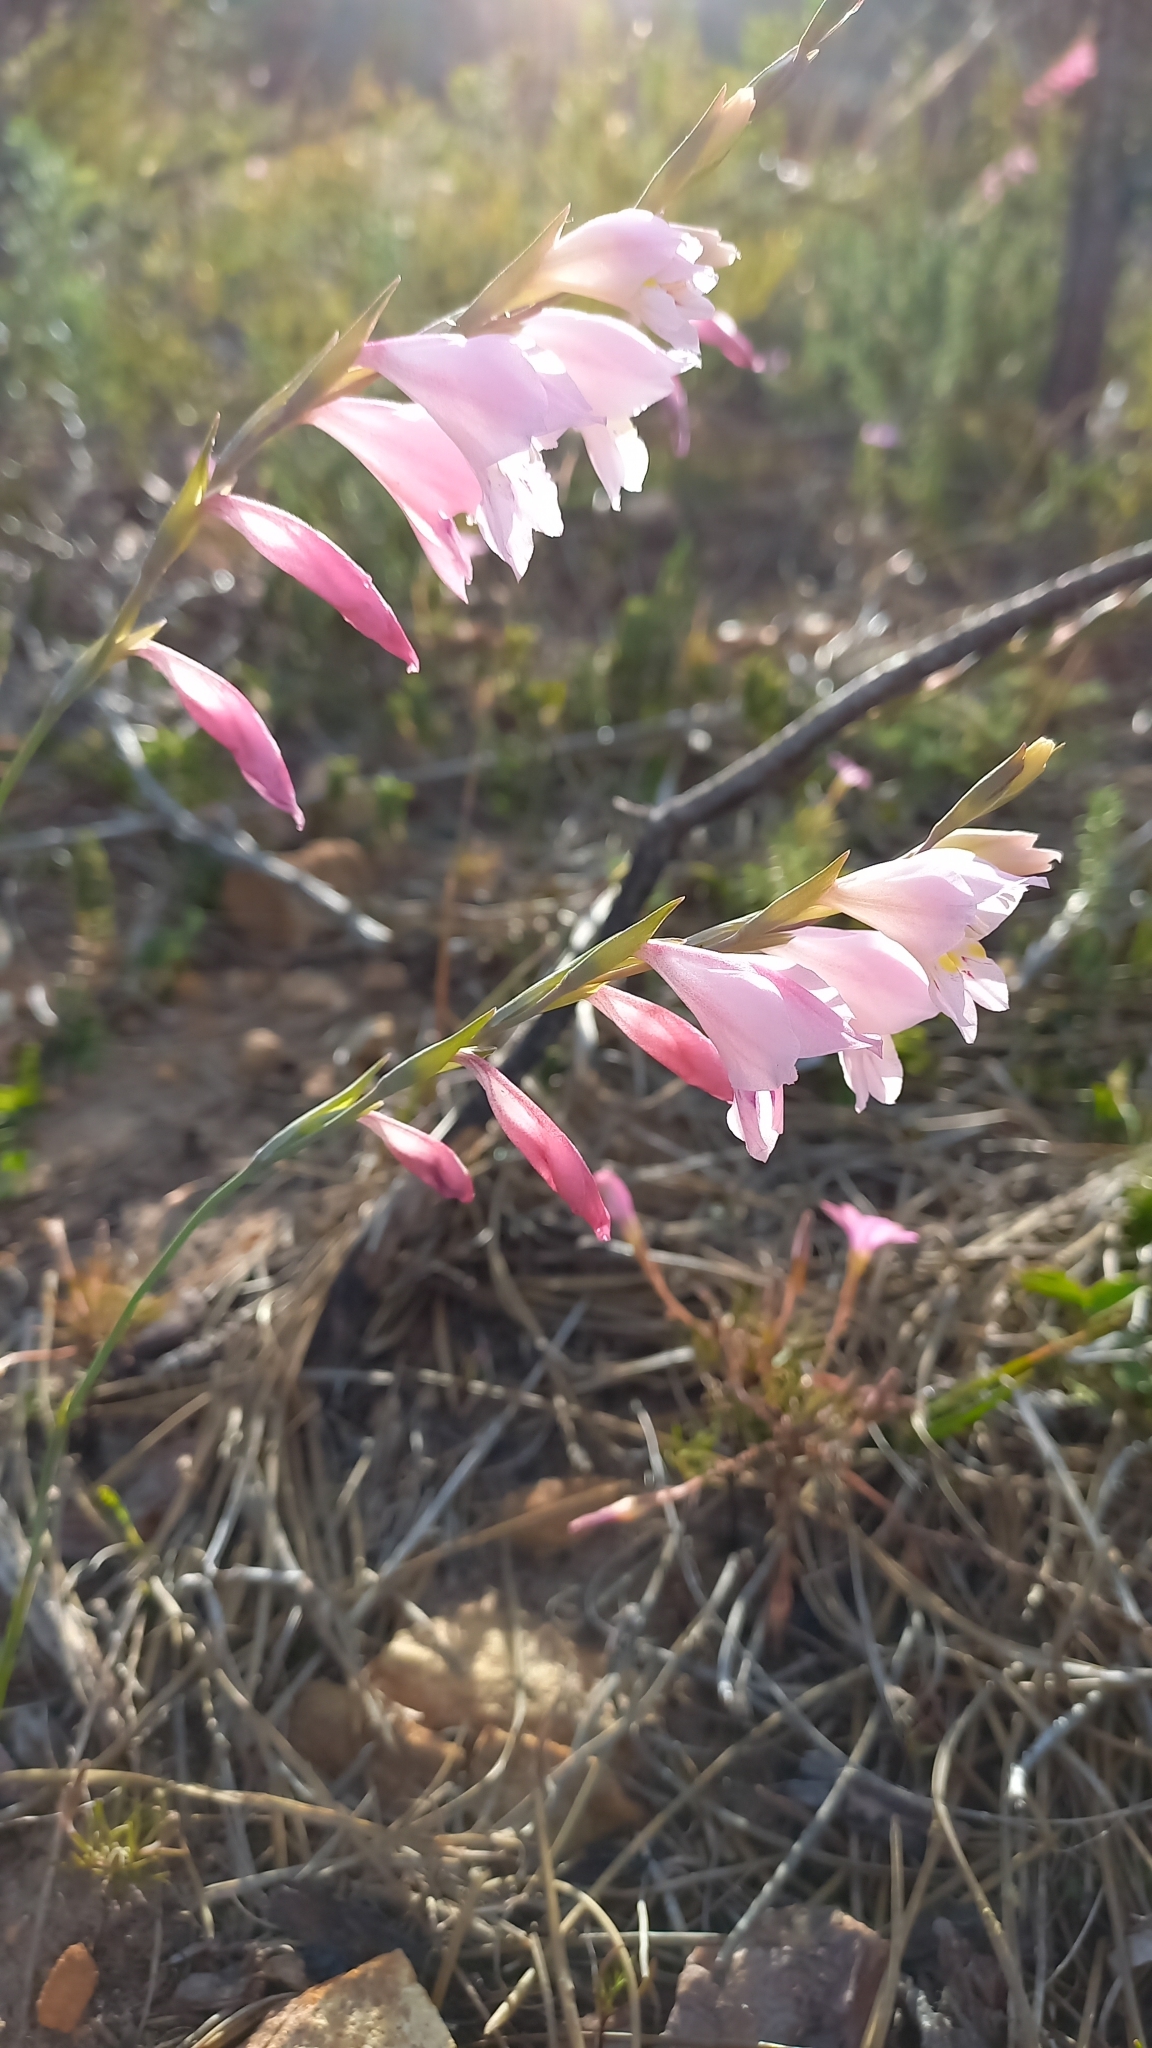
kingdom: Plantae
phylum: Tracheophyta
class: Liliopsida
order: Asparagales
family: Iridaceae
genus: Gladiolus
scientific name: Gladiolus brevifolius
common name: March pypie
